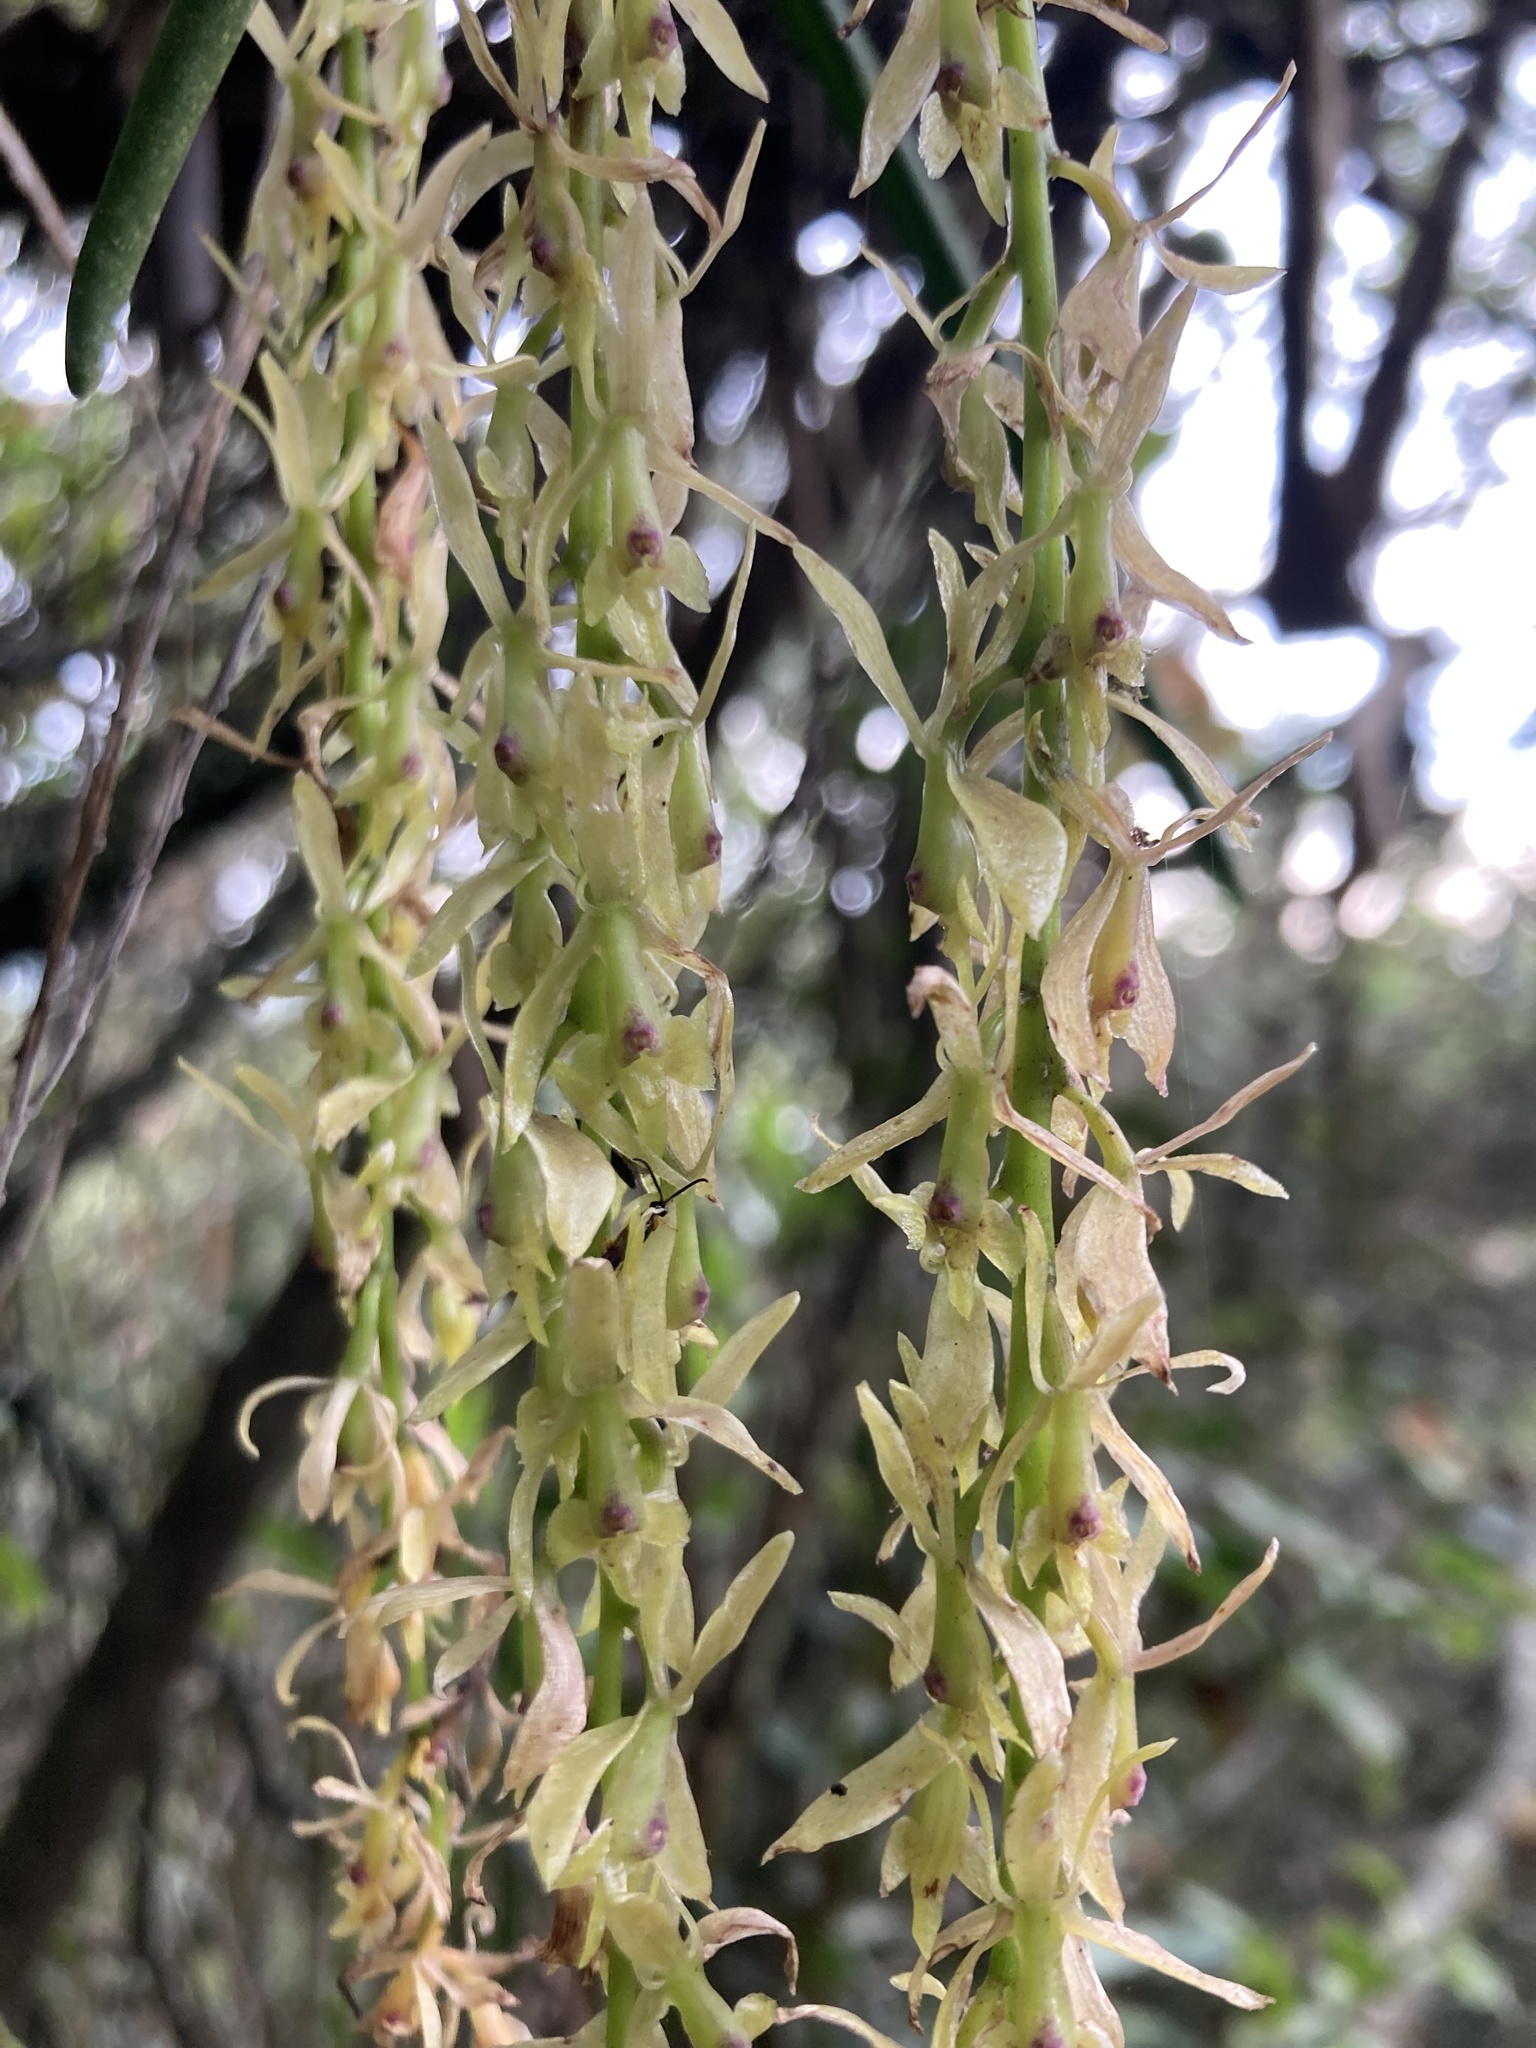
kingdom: Plantae
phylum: Tracheophyta
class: Liliopsida
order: Asparagales
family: Orchidaceae
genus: Epidendrum
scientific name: Epidendrum moritzii
